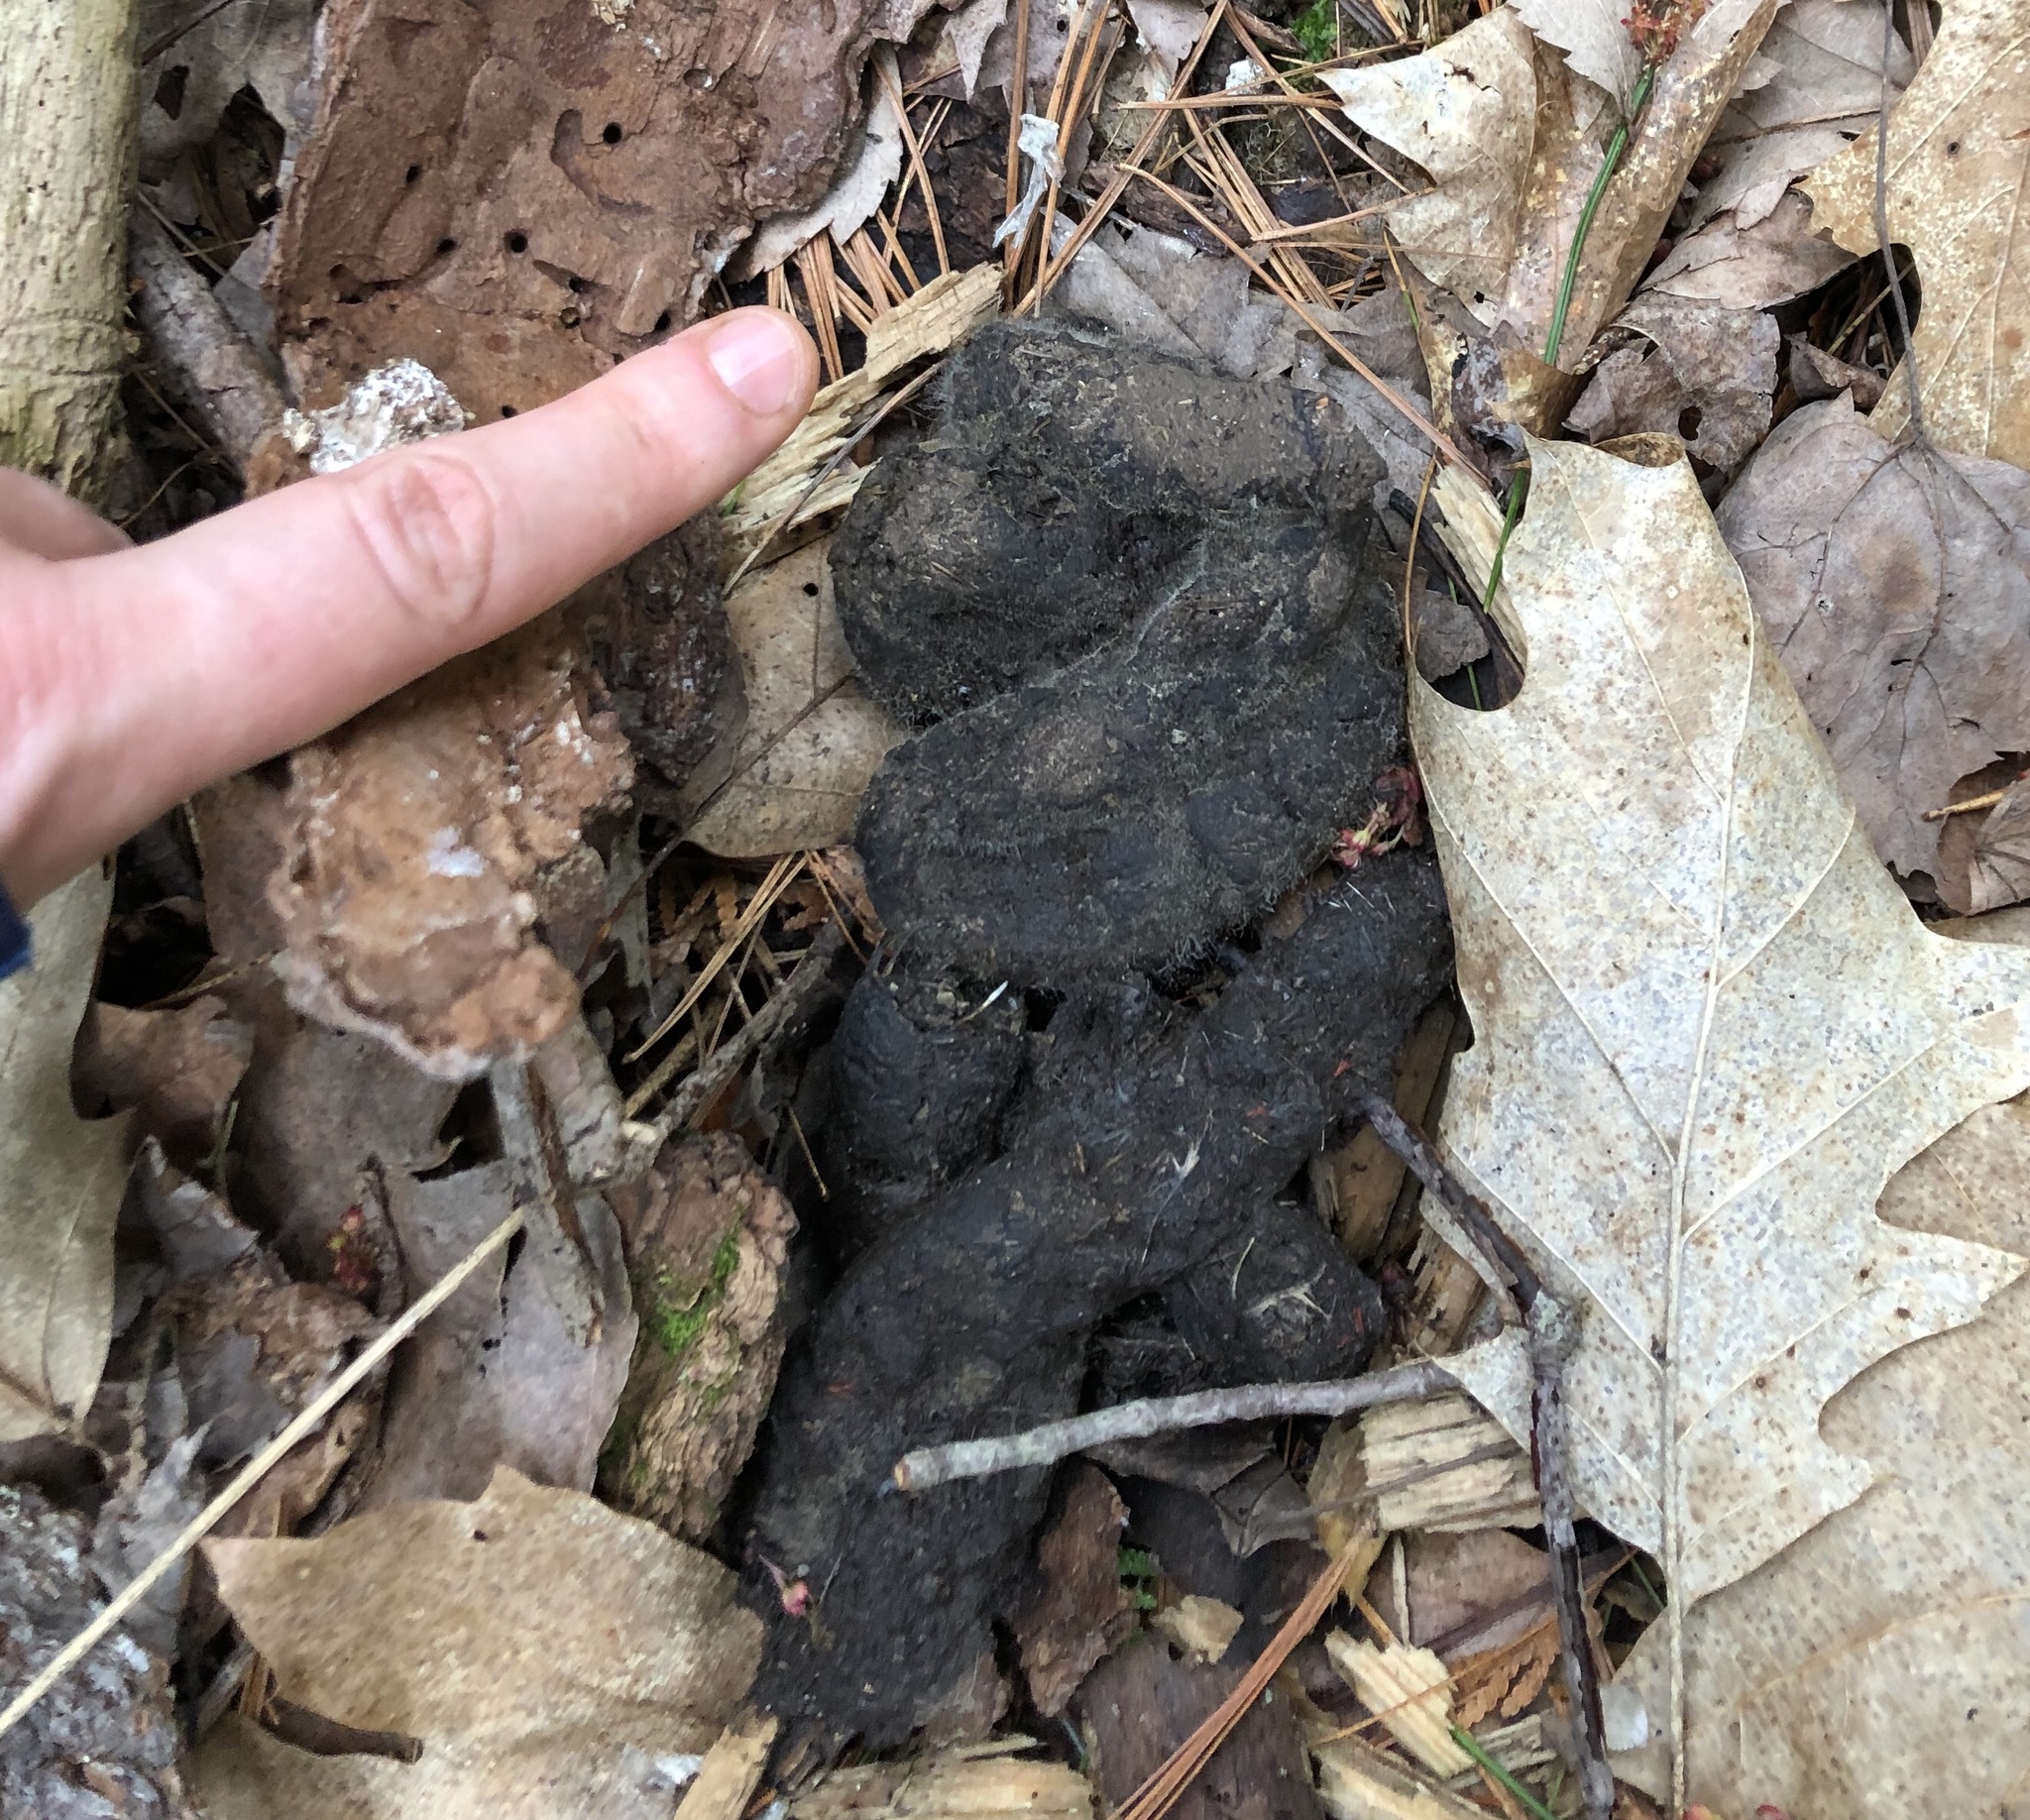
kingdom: Animalia
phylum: Chordata
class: Mammalia
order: Carnivora
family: Ursidae
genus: Ursus
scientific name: Ursus americanus
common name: American black bear
